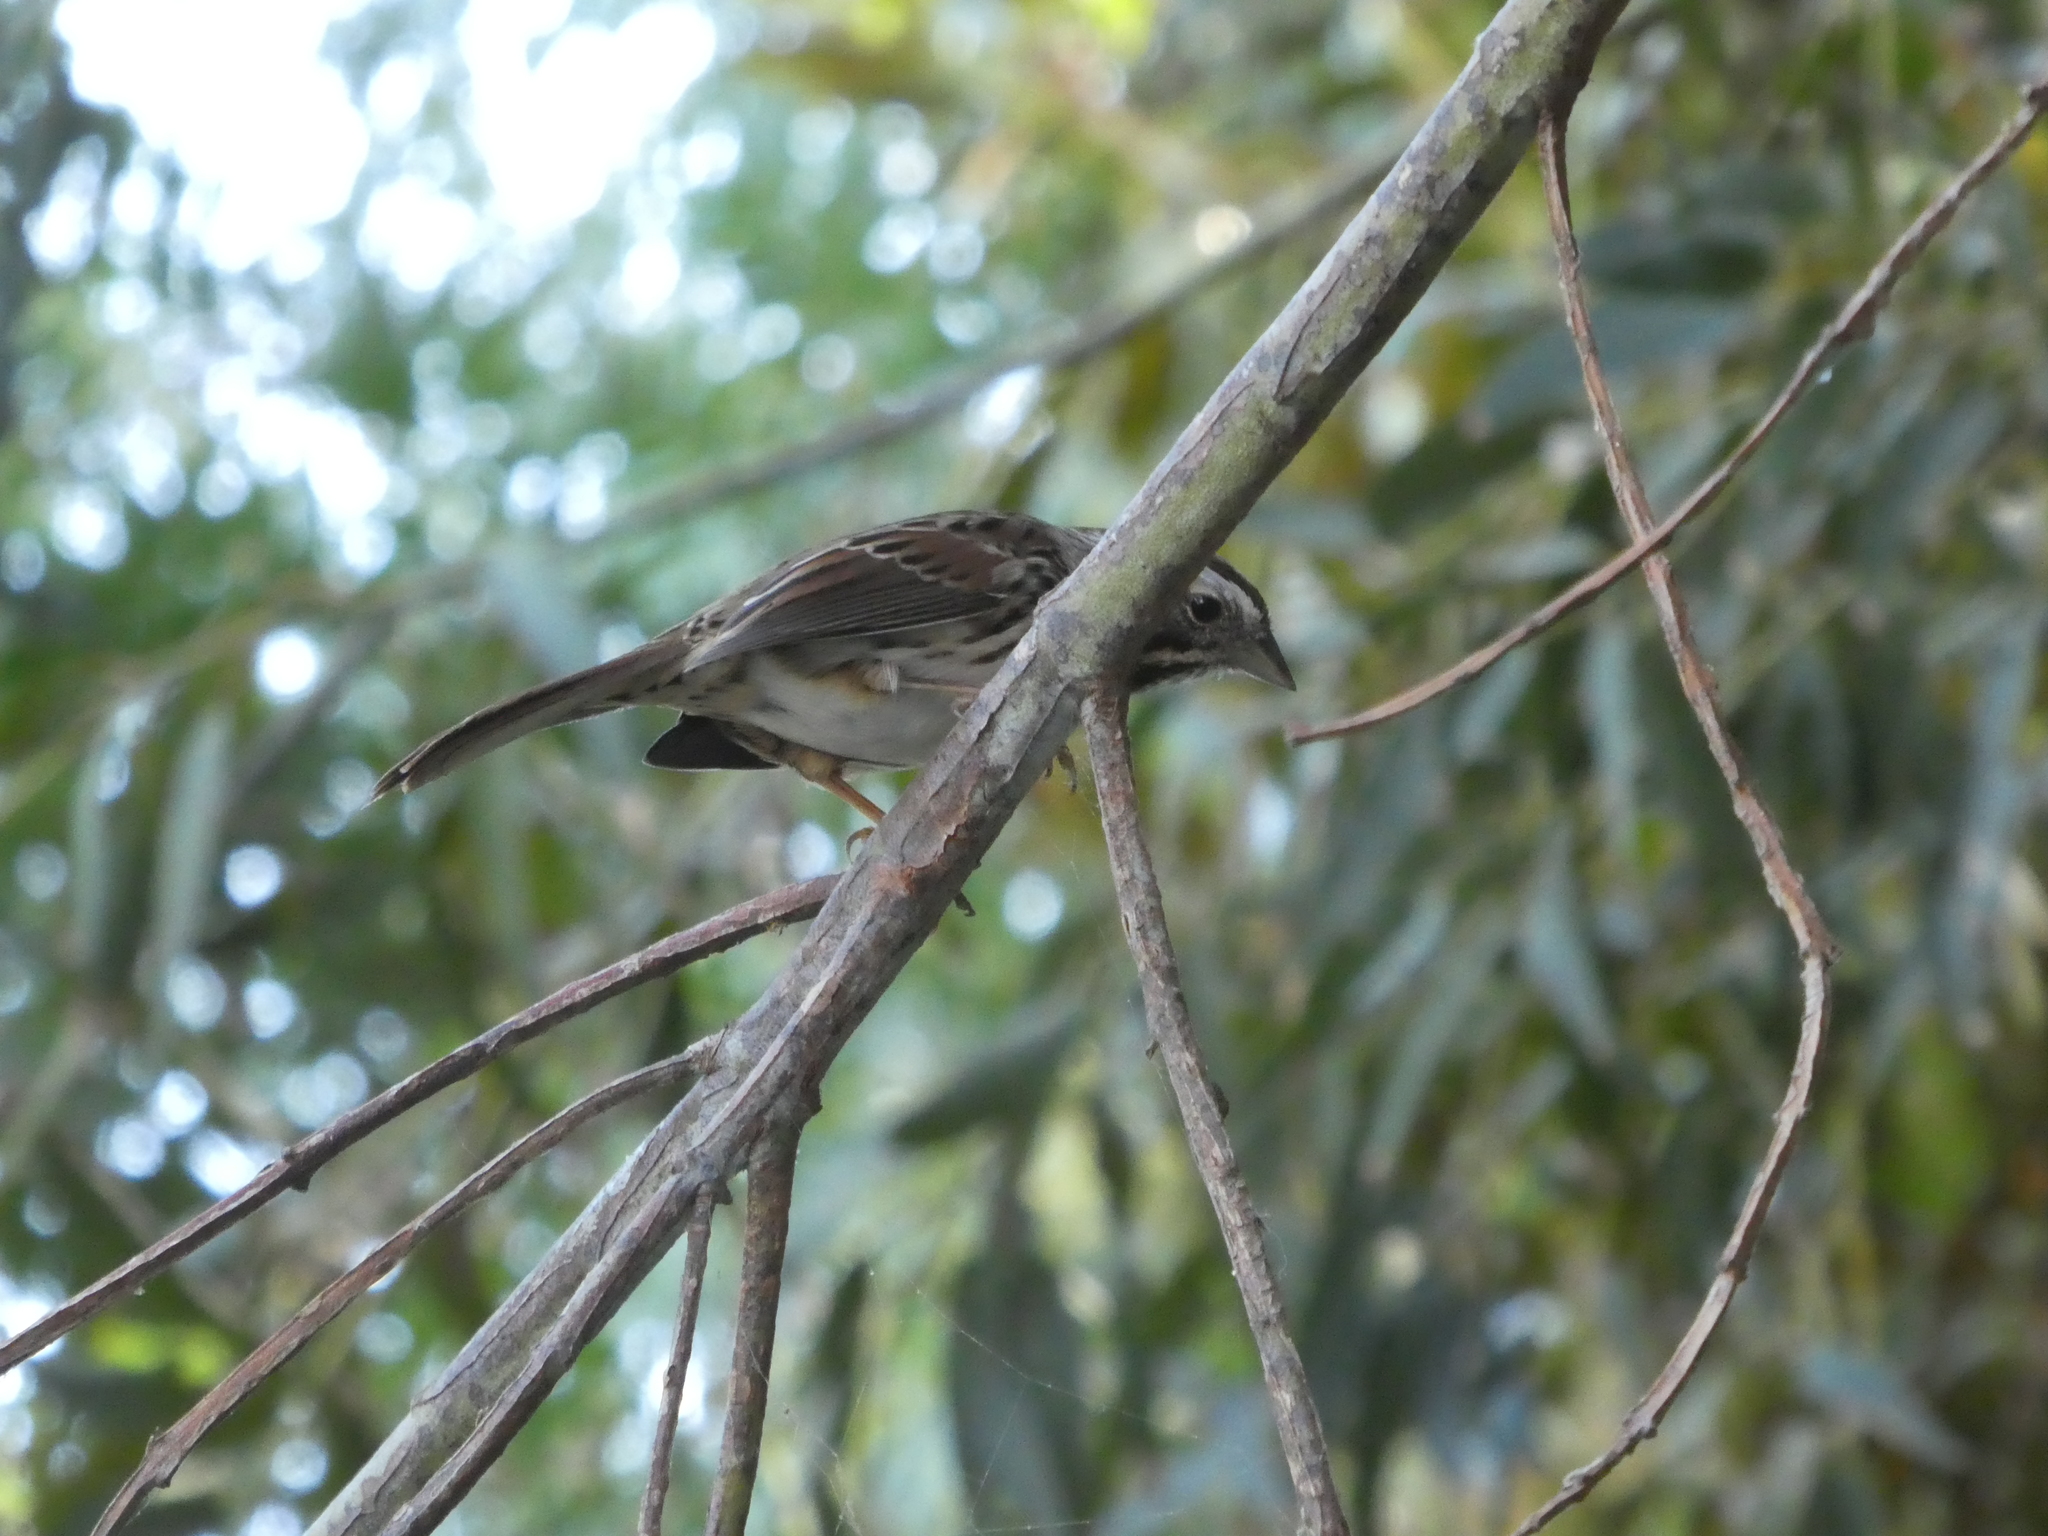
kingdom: Animalia
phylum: Chordata
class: Aves
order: Passeriformes
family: Passerellidae
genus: Melospiza
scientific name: Melospiza melodia
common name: Song sparrow
